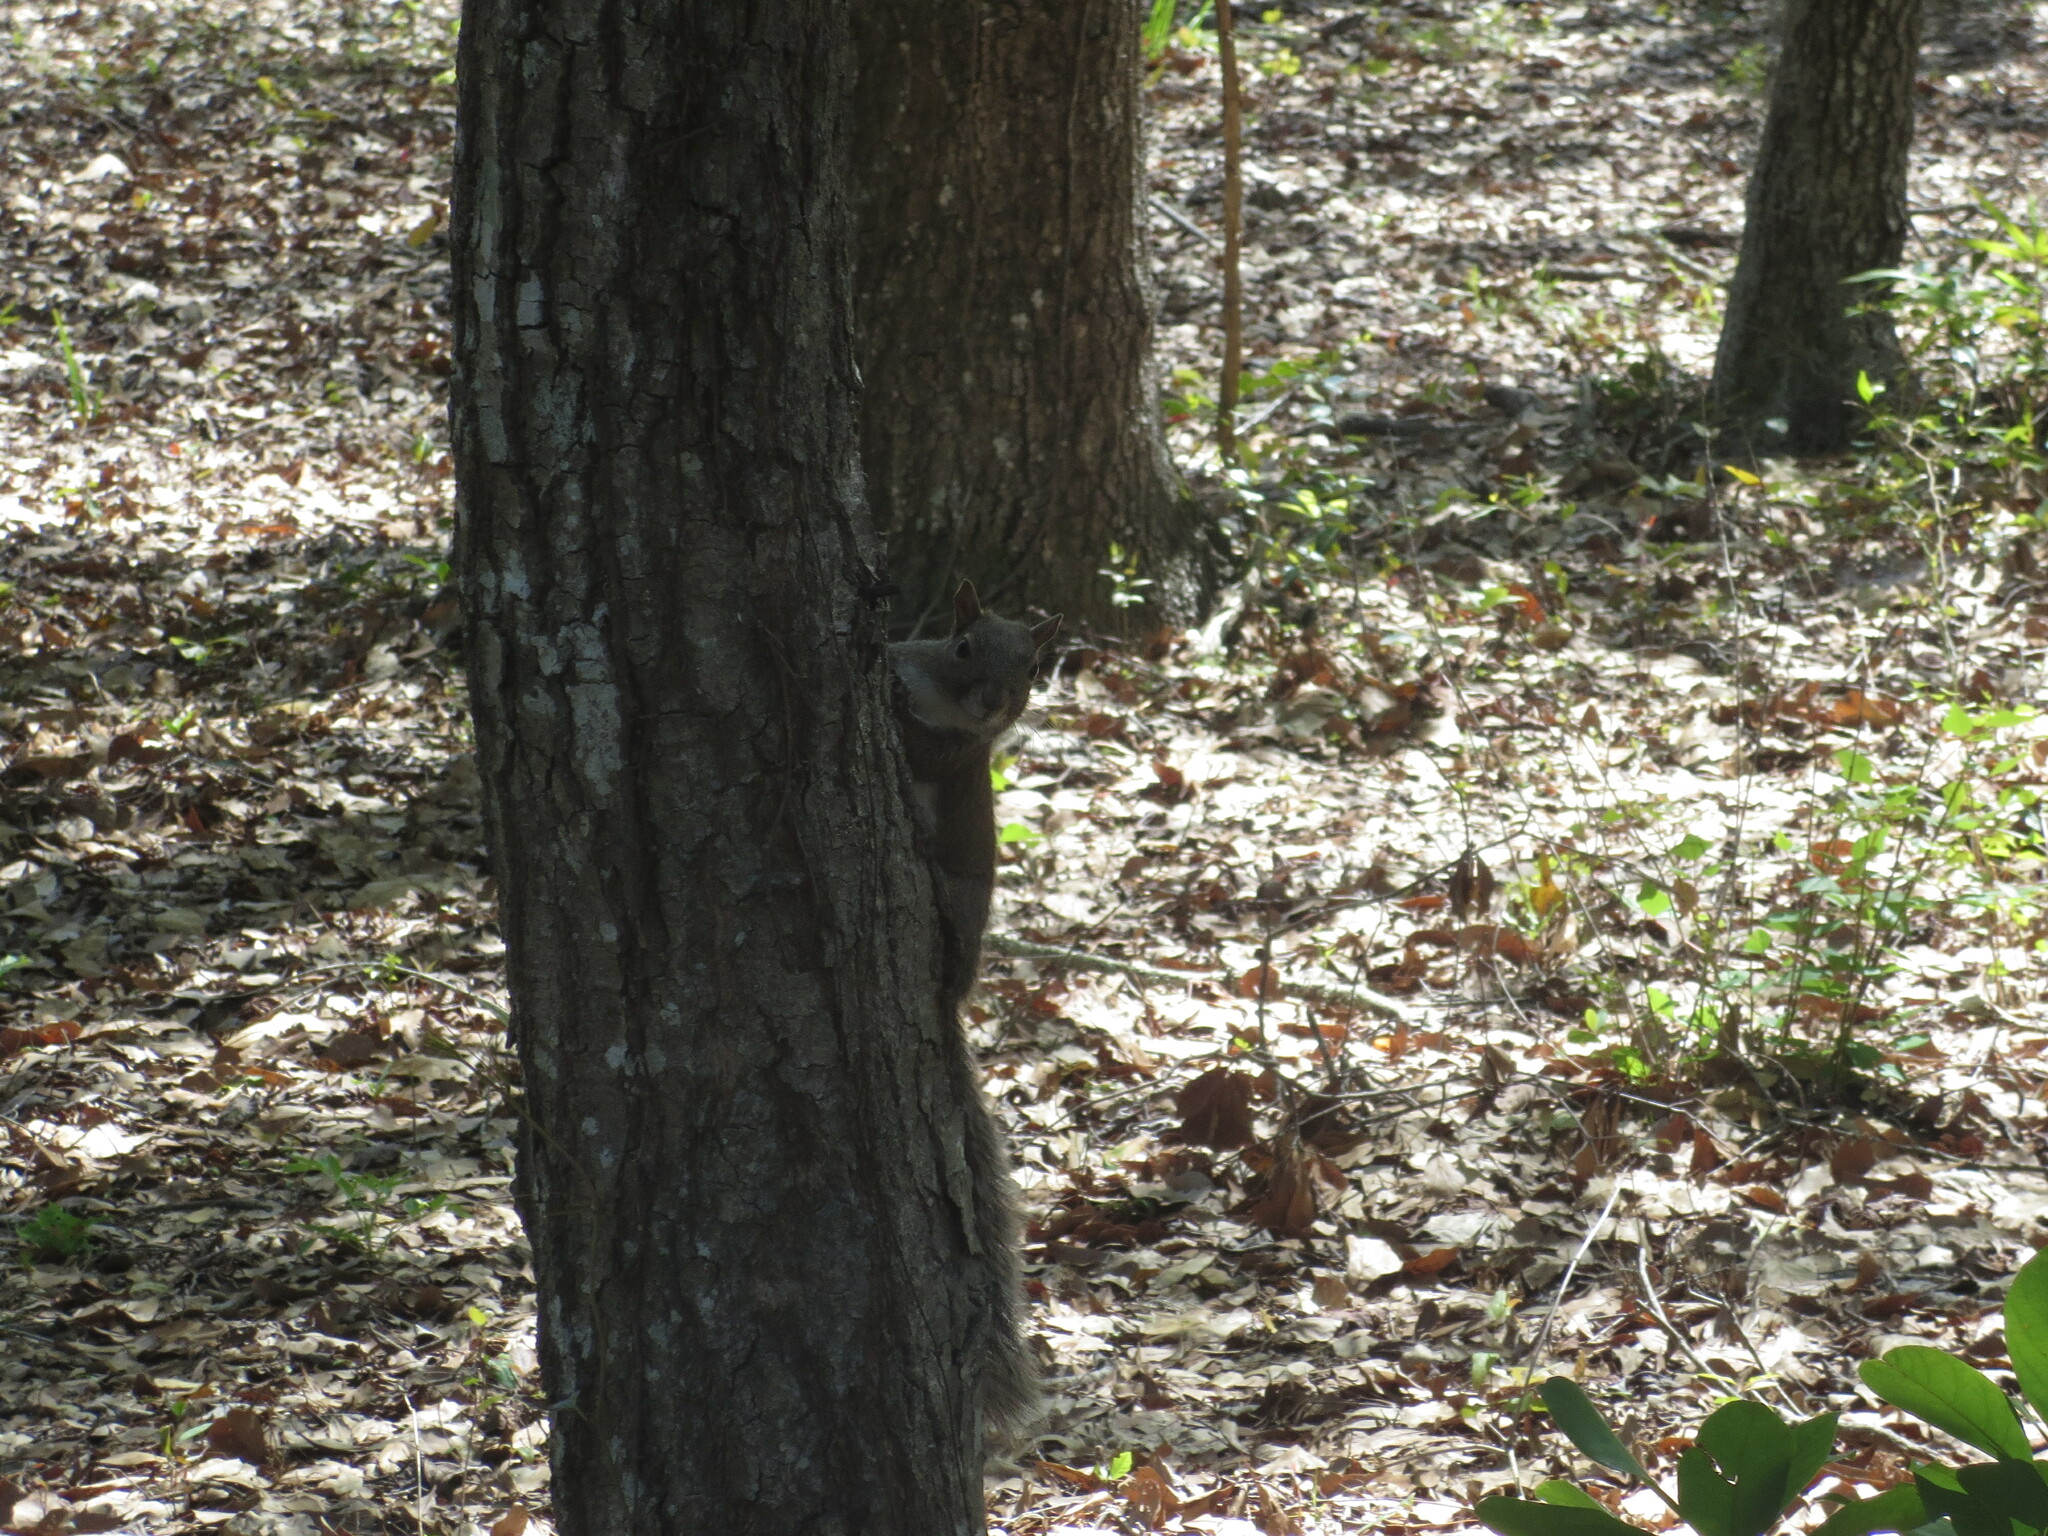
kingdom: Animalia
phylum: Chordata
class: Mammalia
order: Rodentia
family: Sciuridae
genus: Sciurus
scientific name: Sciurus carolinensis
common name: Eastern gray squirrel
